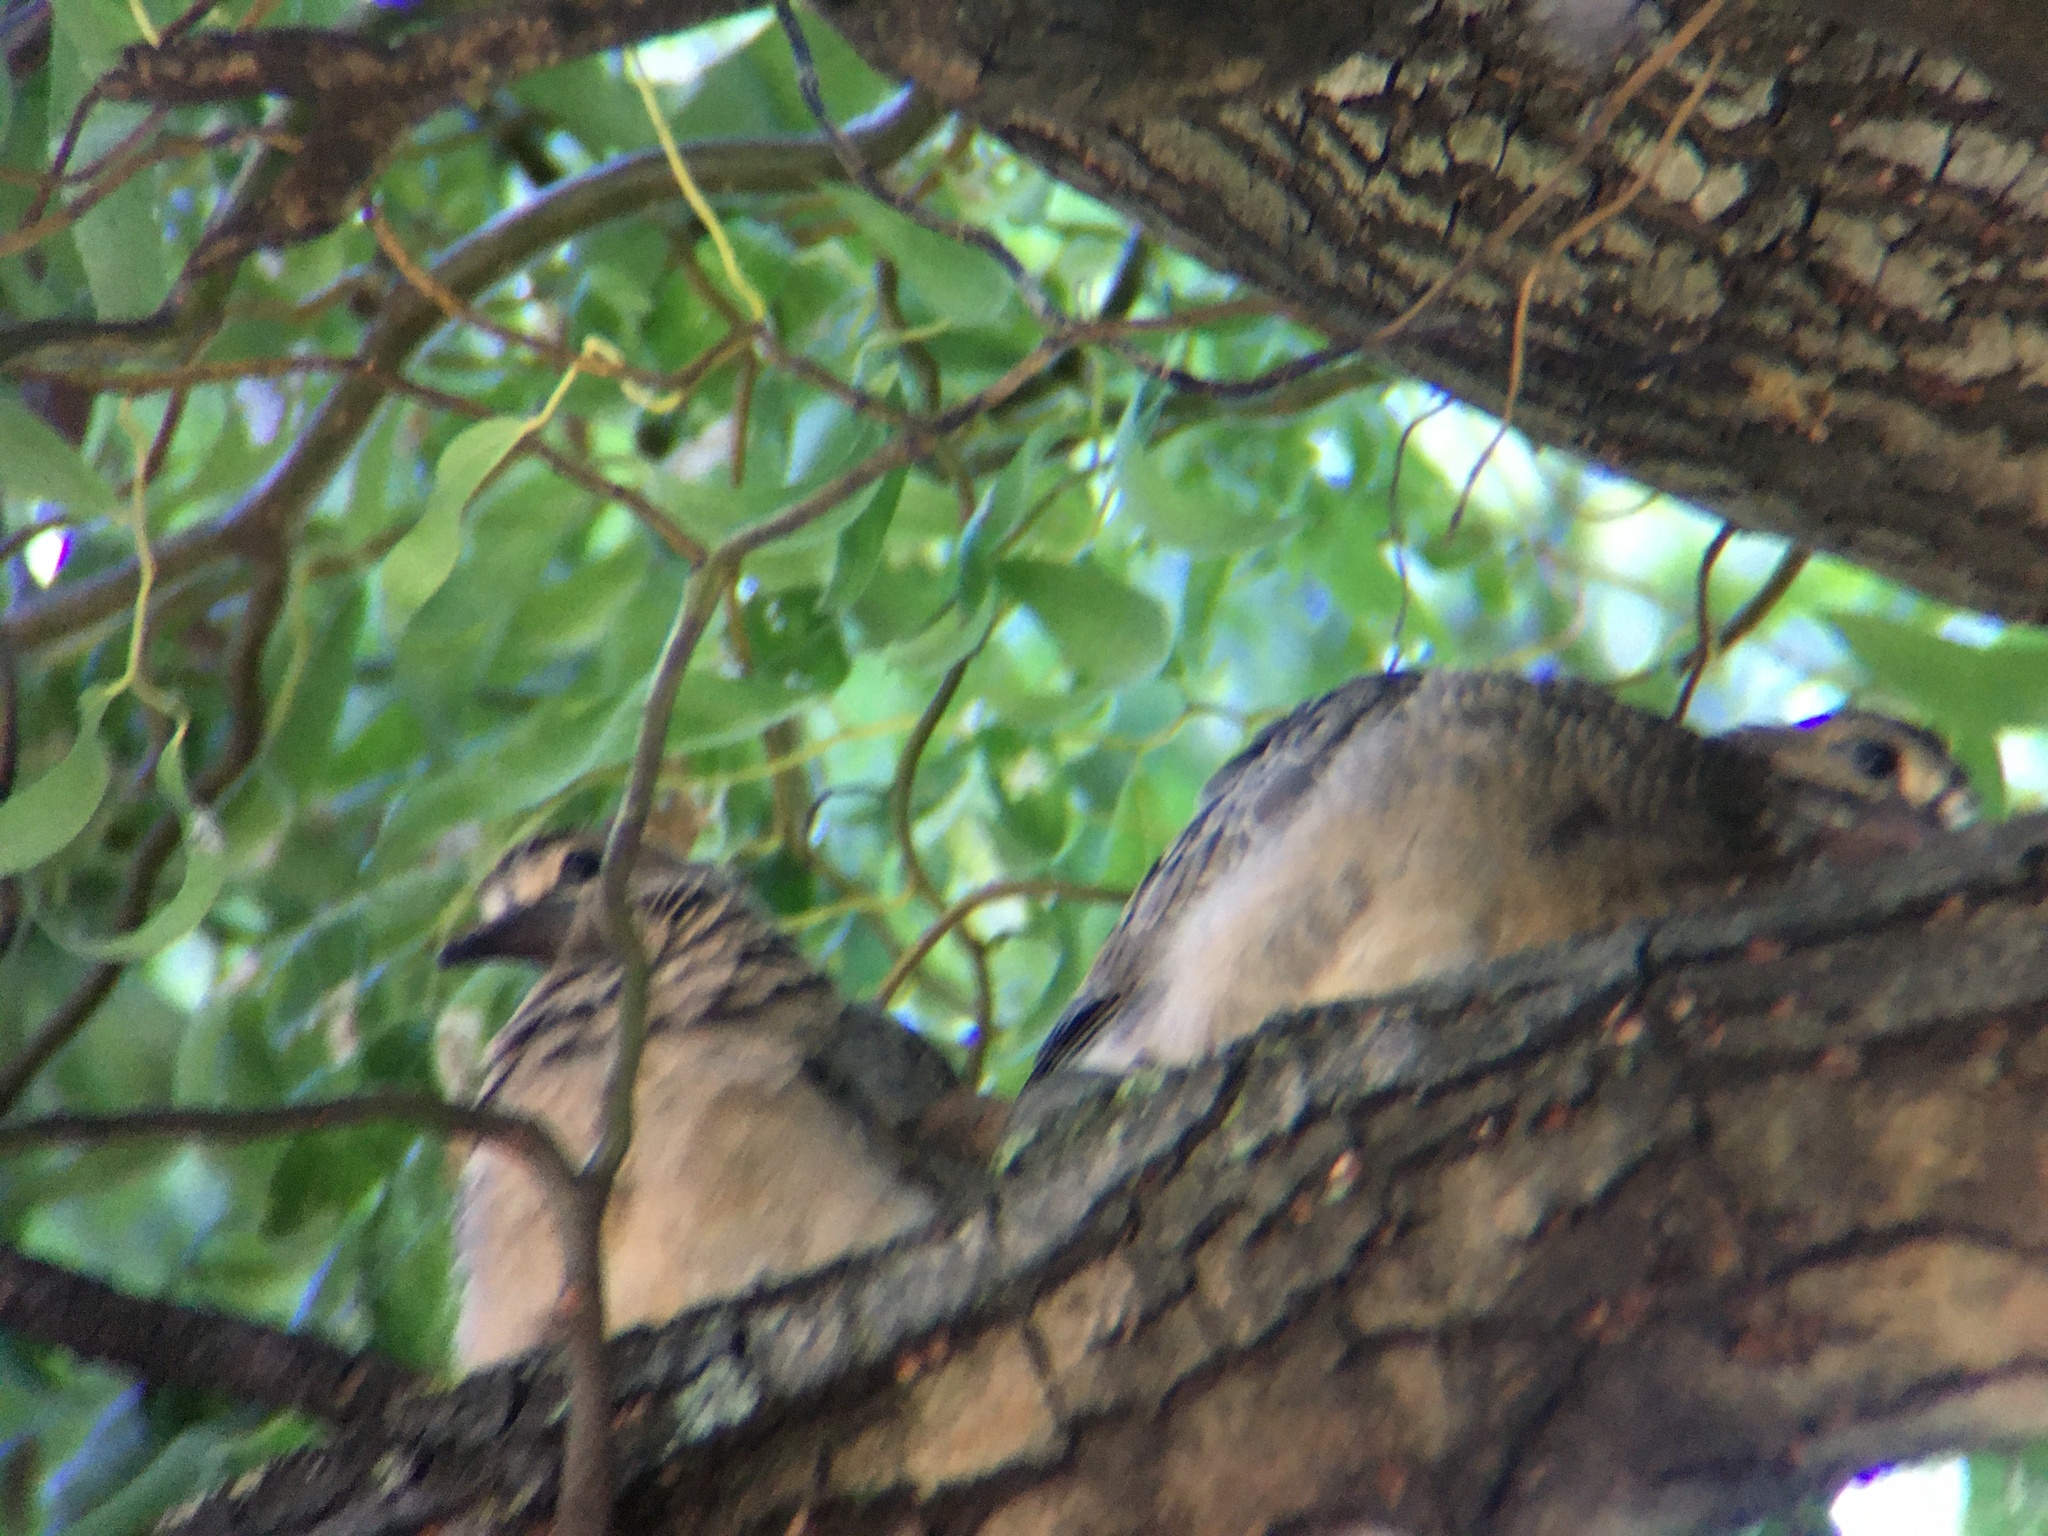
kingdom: Animalia
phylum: Chordata
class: Aves
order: Columbiformes
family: Columbidae
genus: Zenaida
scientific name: Zenaida macroura
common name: Mourning dove
